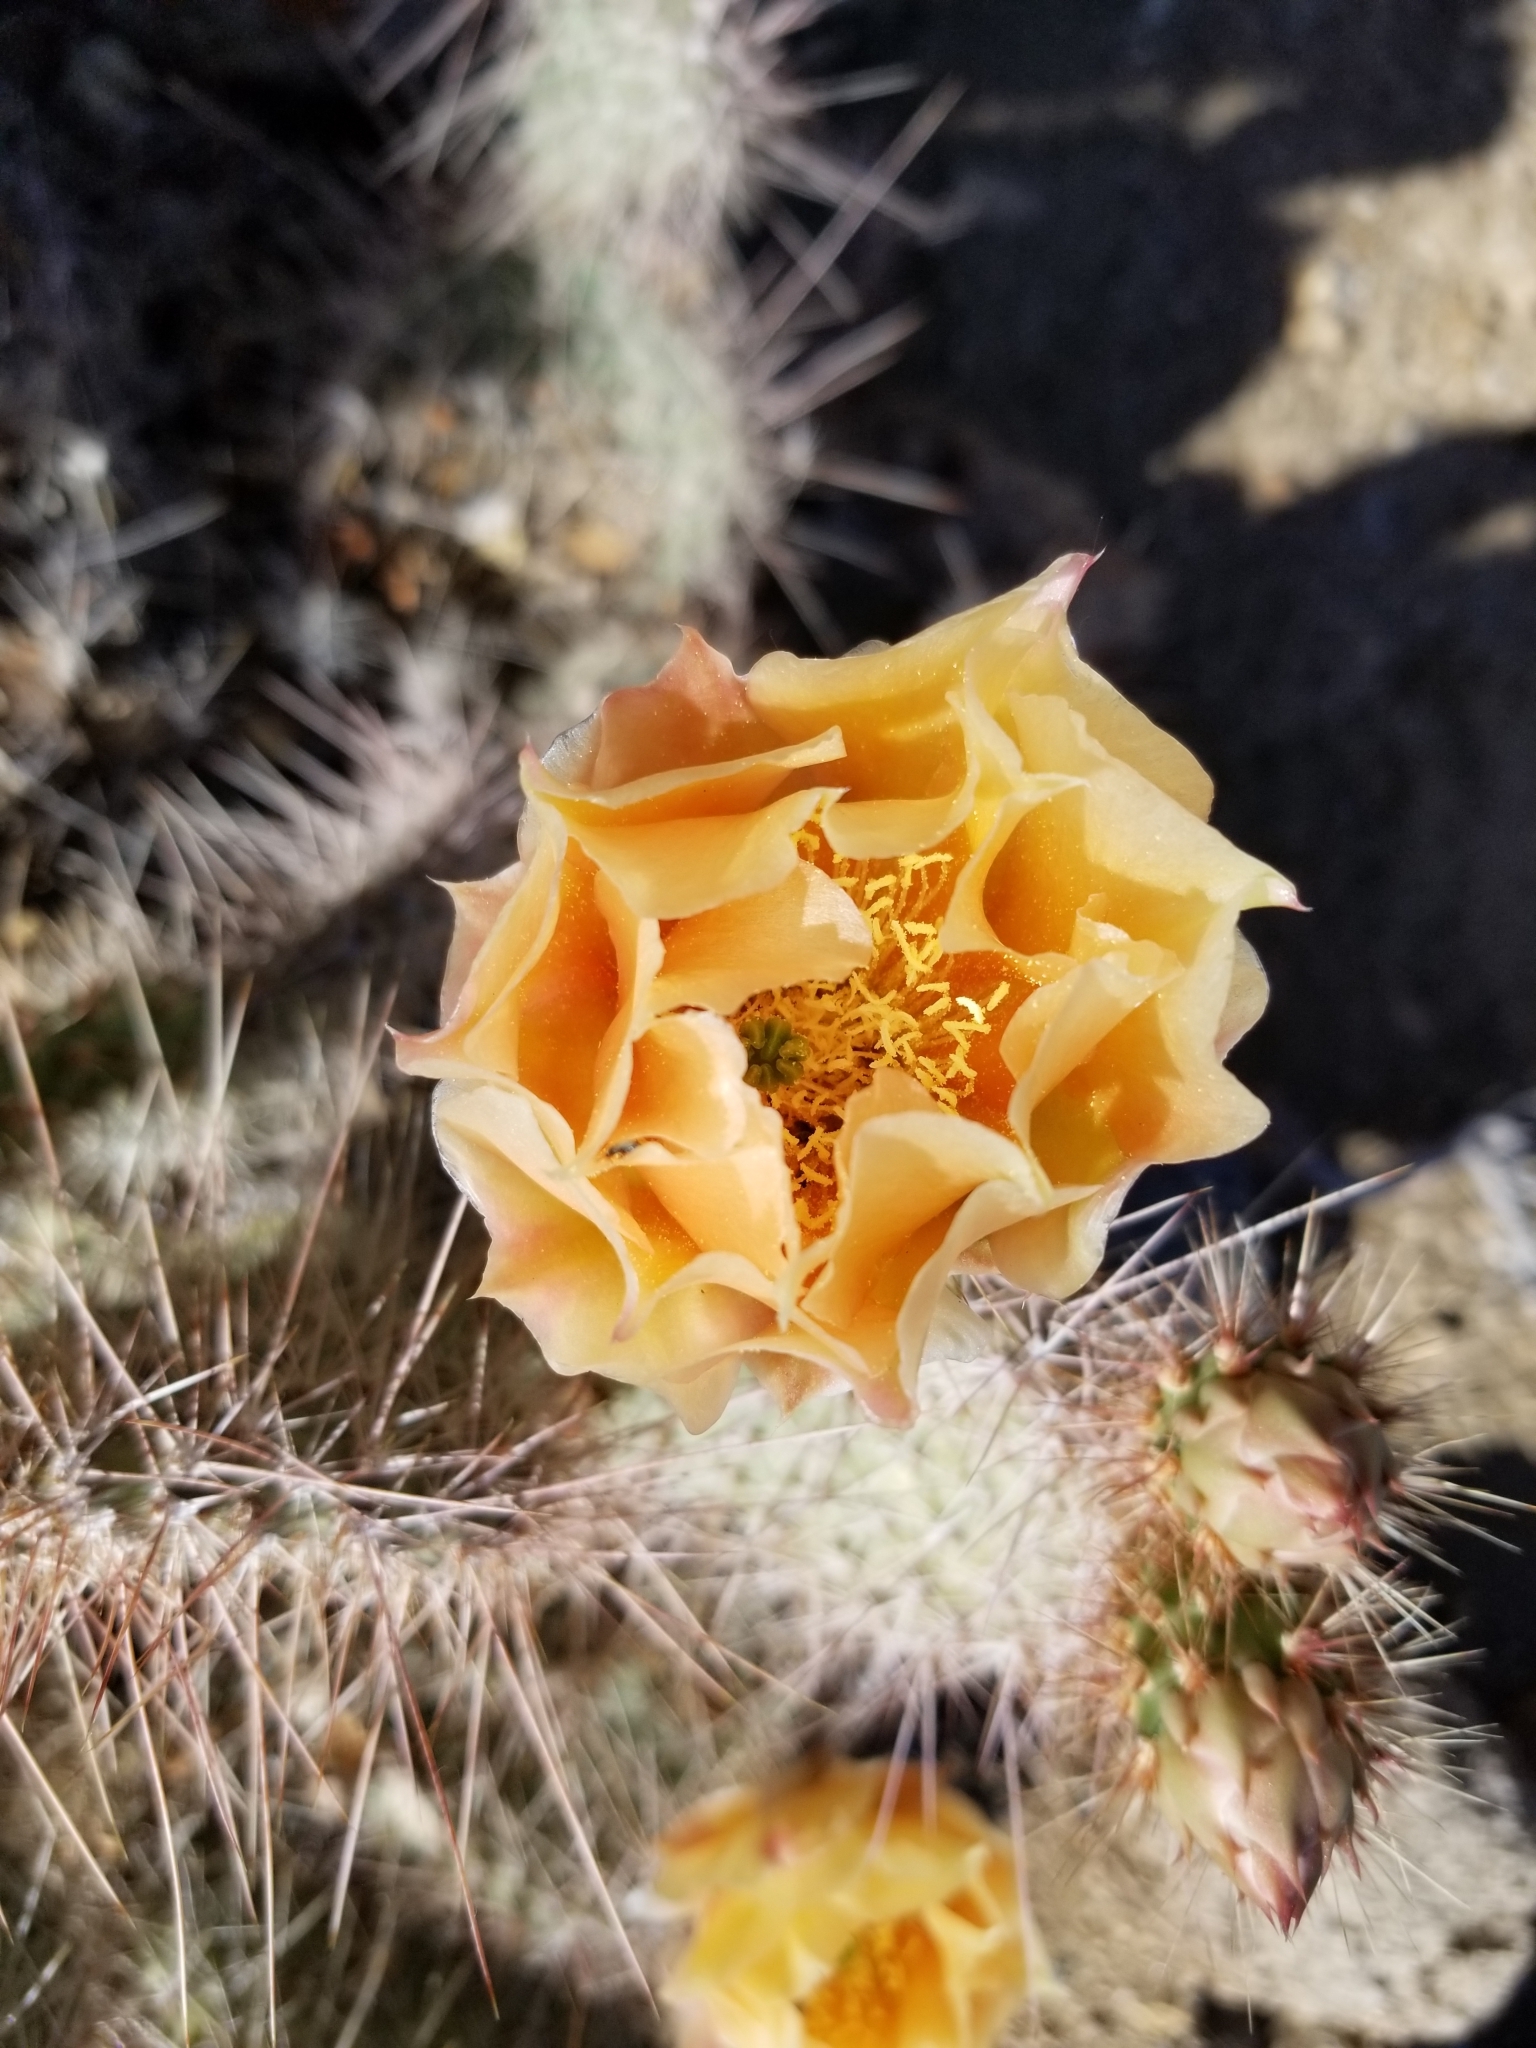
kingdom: Plantae
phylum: Tracheophyta
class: Magnoliopsida
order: Caryophyllales
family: Cactaceae
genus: Opuntia
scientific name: Opuntia polyacantha
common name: Plains prickly-pear
